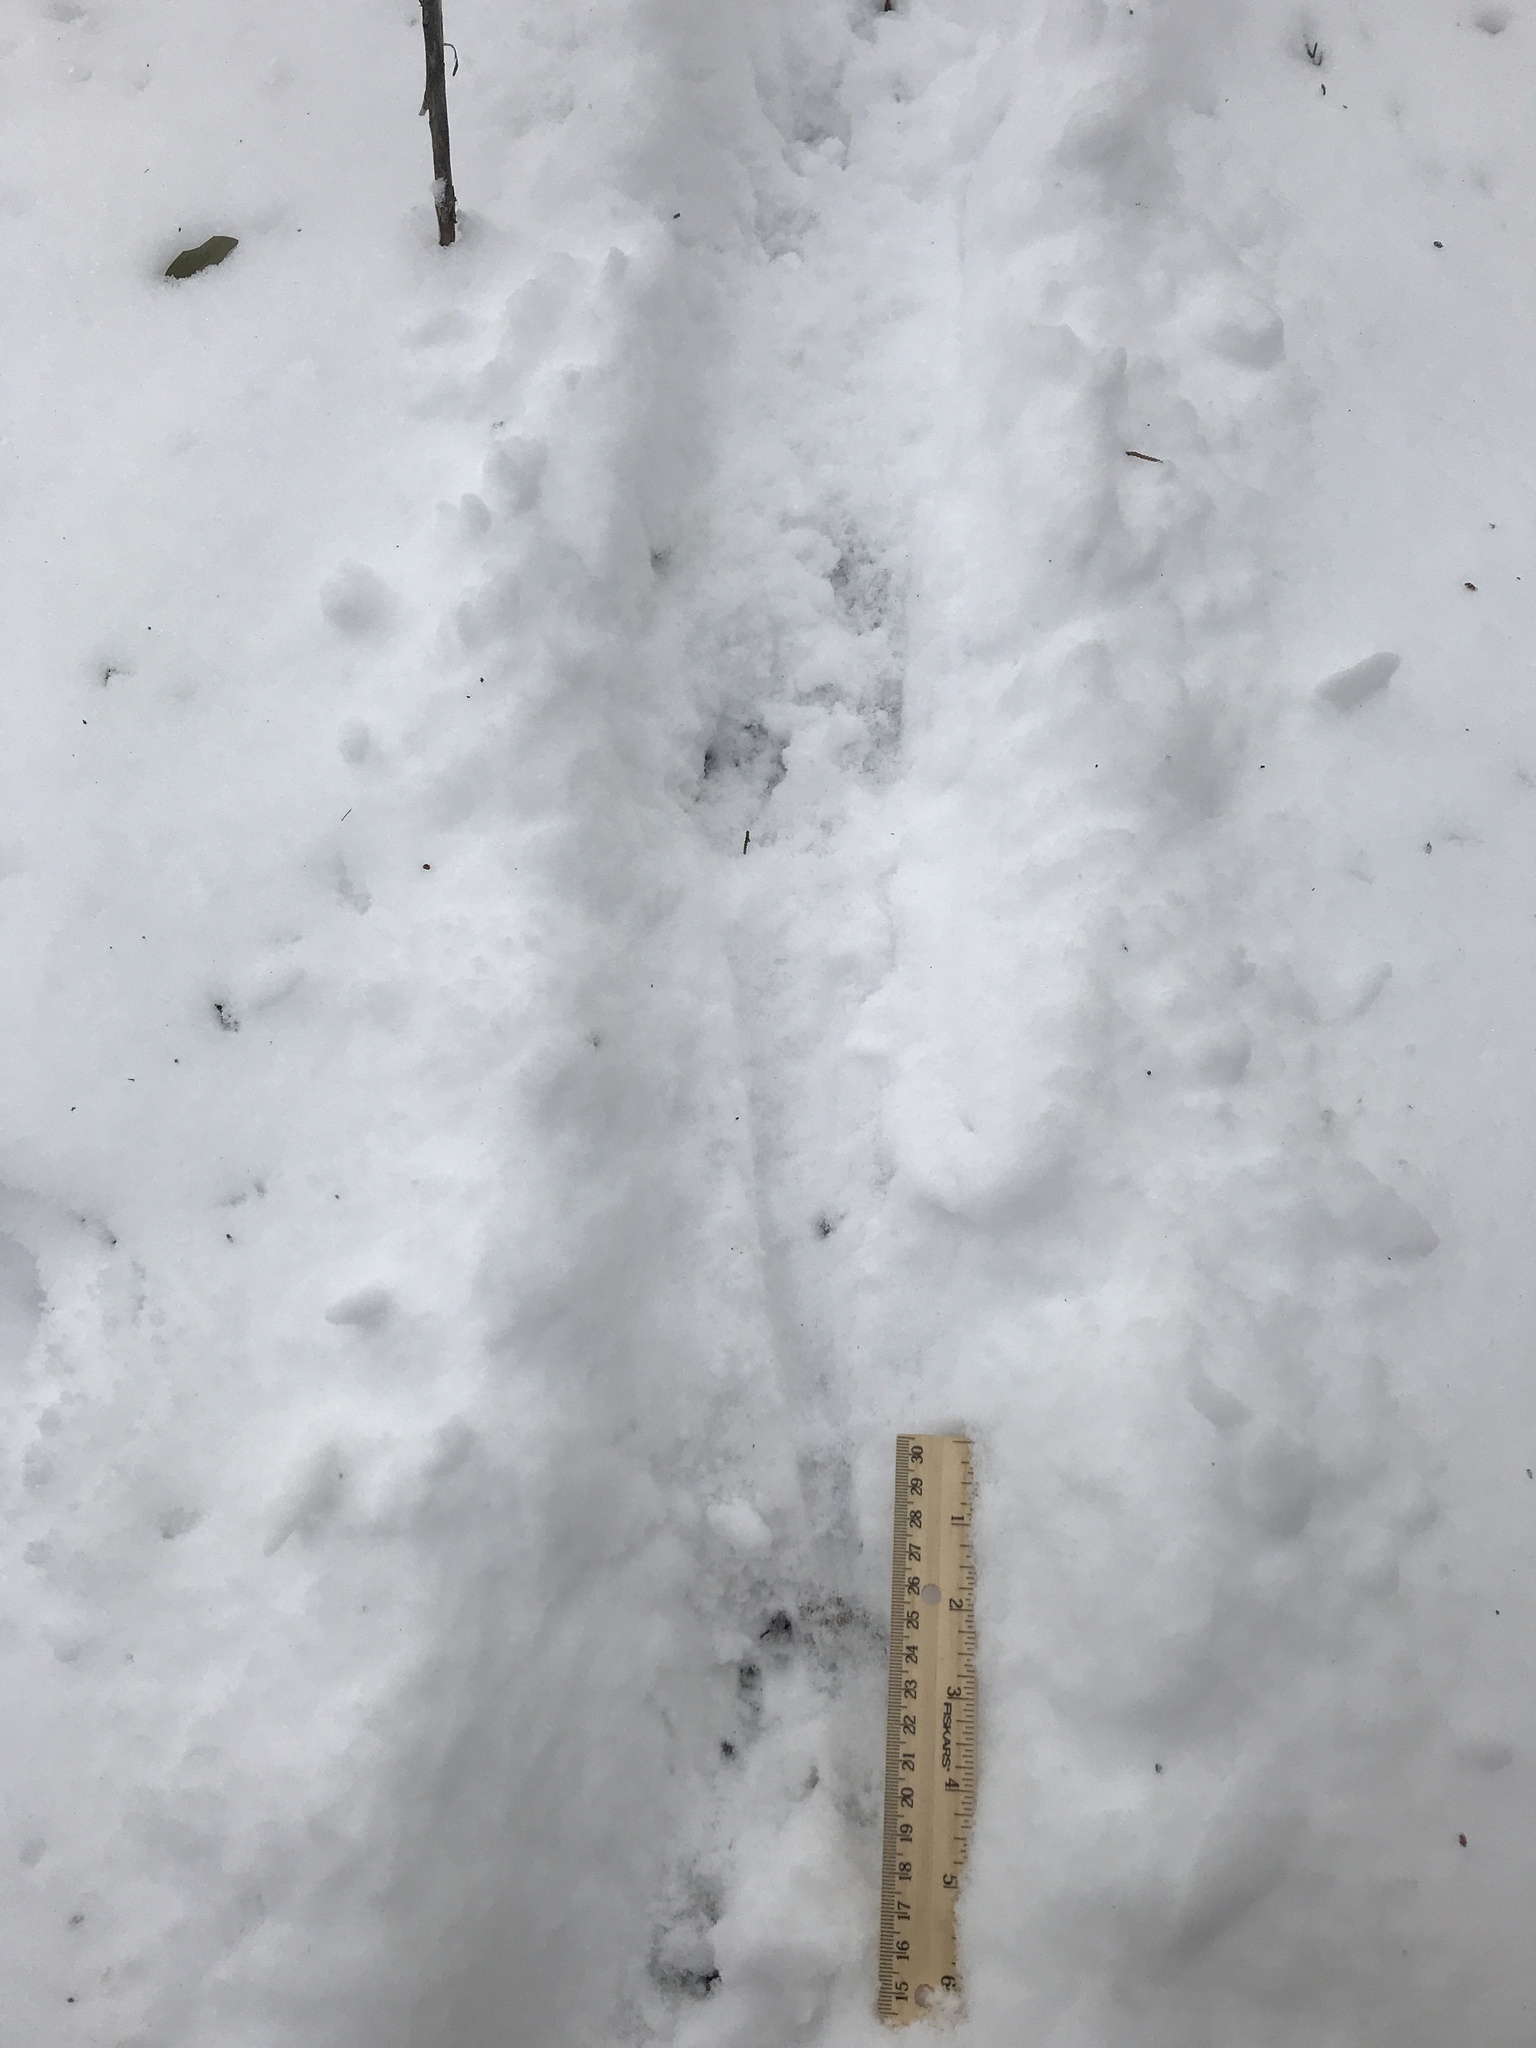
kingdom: Animalia
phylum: Chordata
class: Mammalia
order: Cingulata
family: Dasypodidae
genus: Dasypus
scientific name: Dasypus novemcinctus
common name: Nine-banded armadillo
